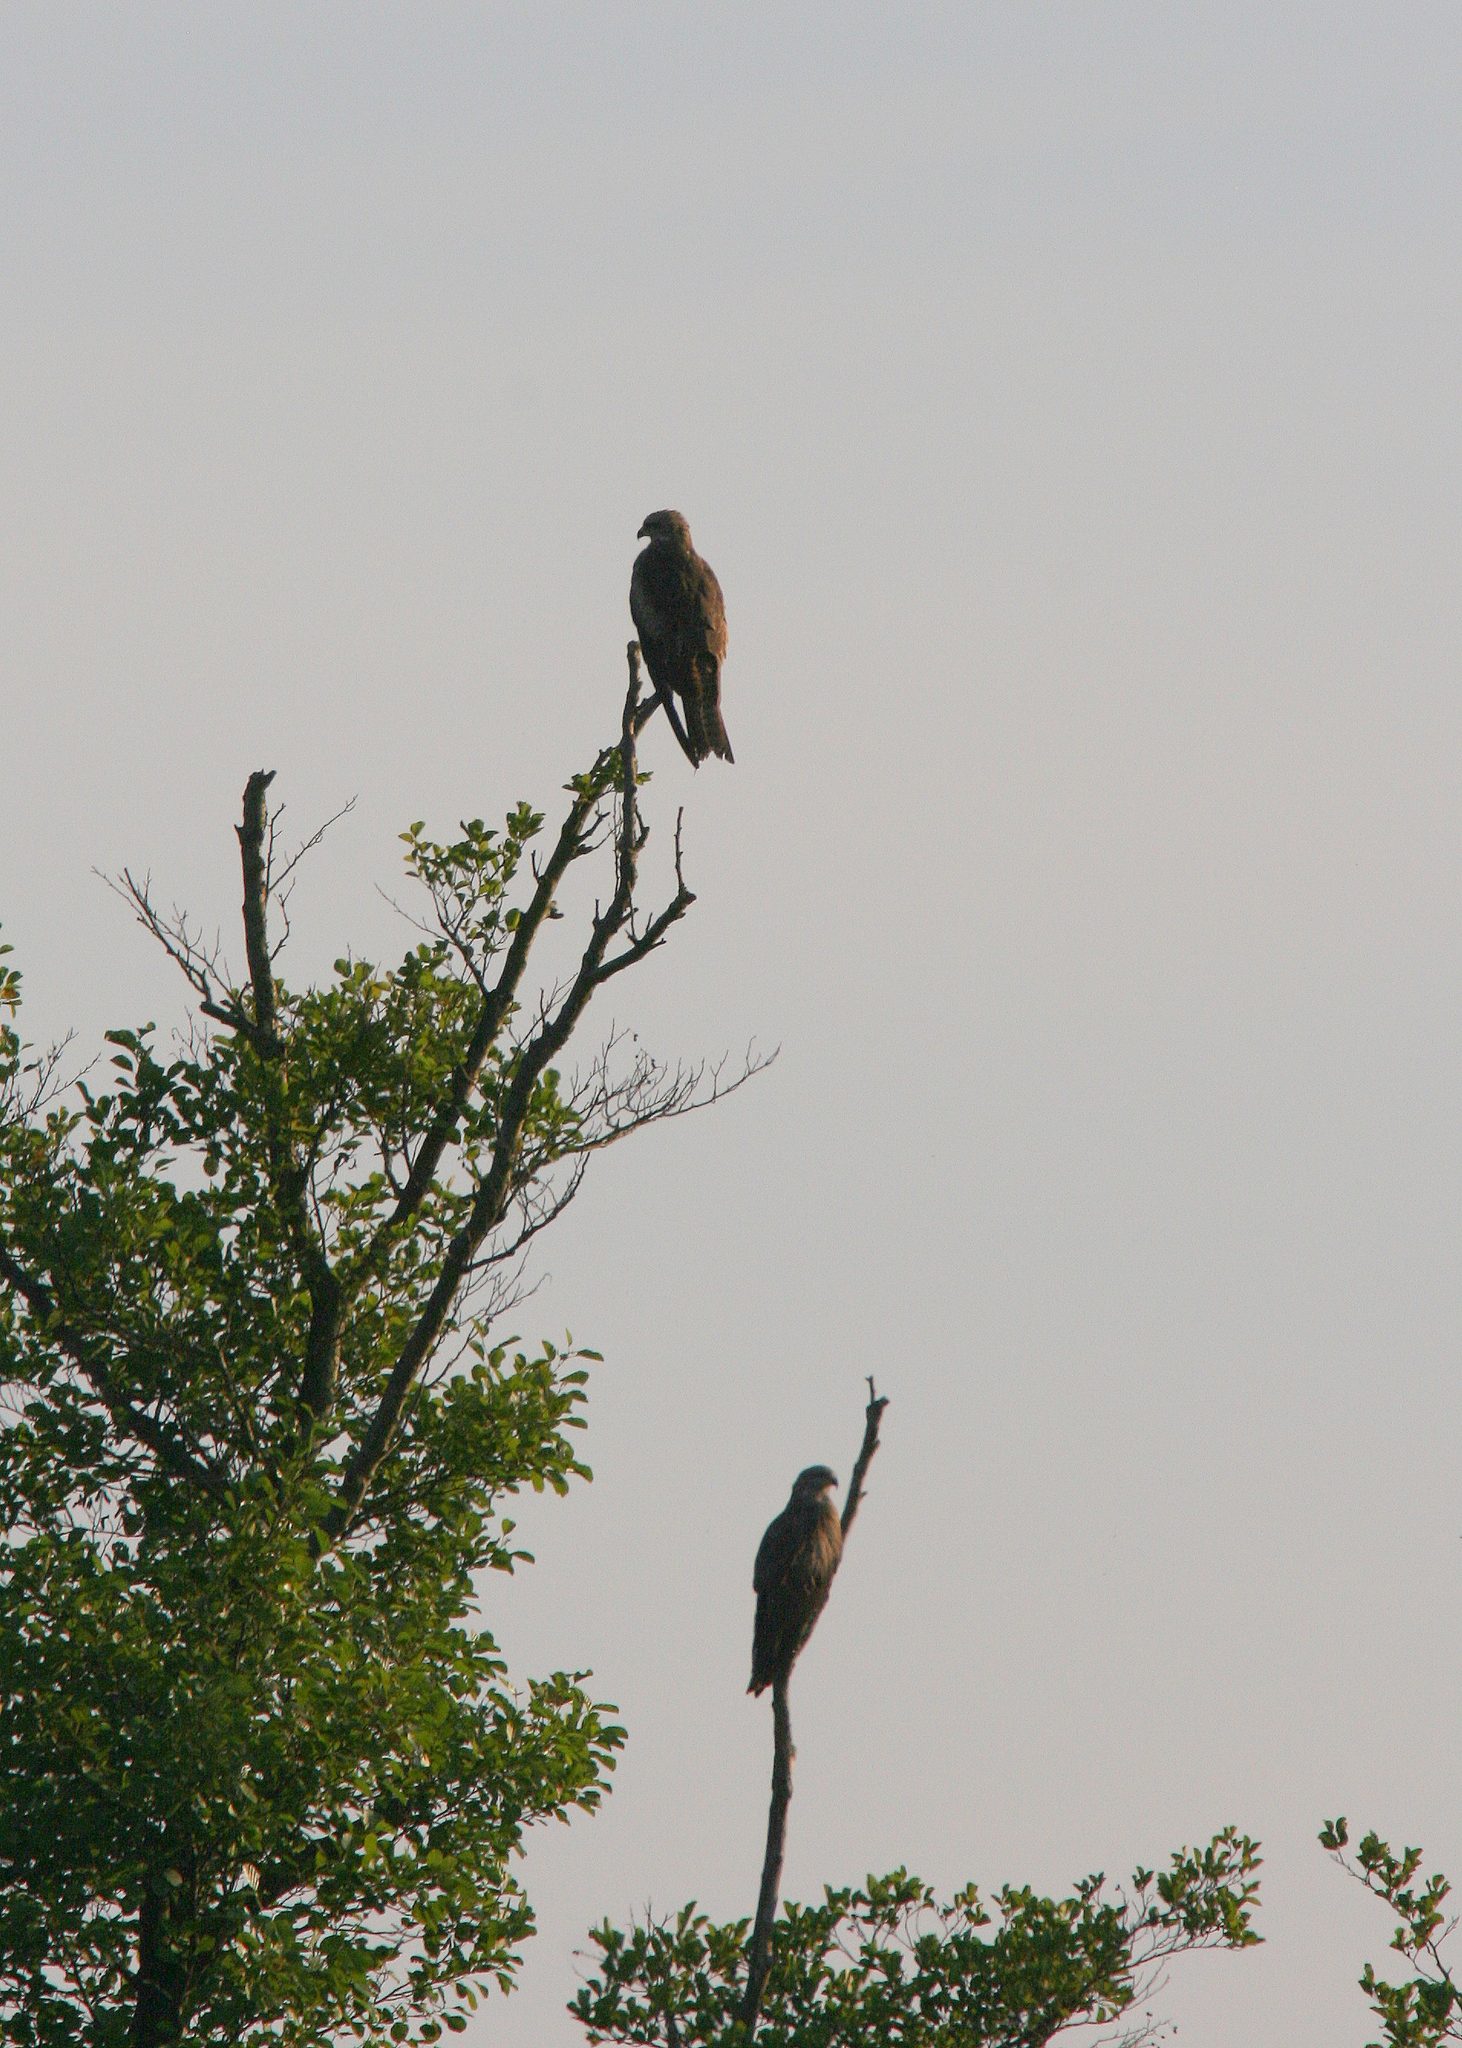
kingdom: Animalia
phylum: Chordata
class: Aves
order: Accipitriformes
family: Accipitridae
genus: Milvus
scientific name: Milvus migrans
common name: Black kite
